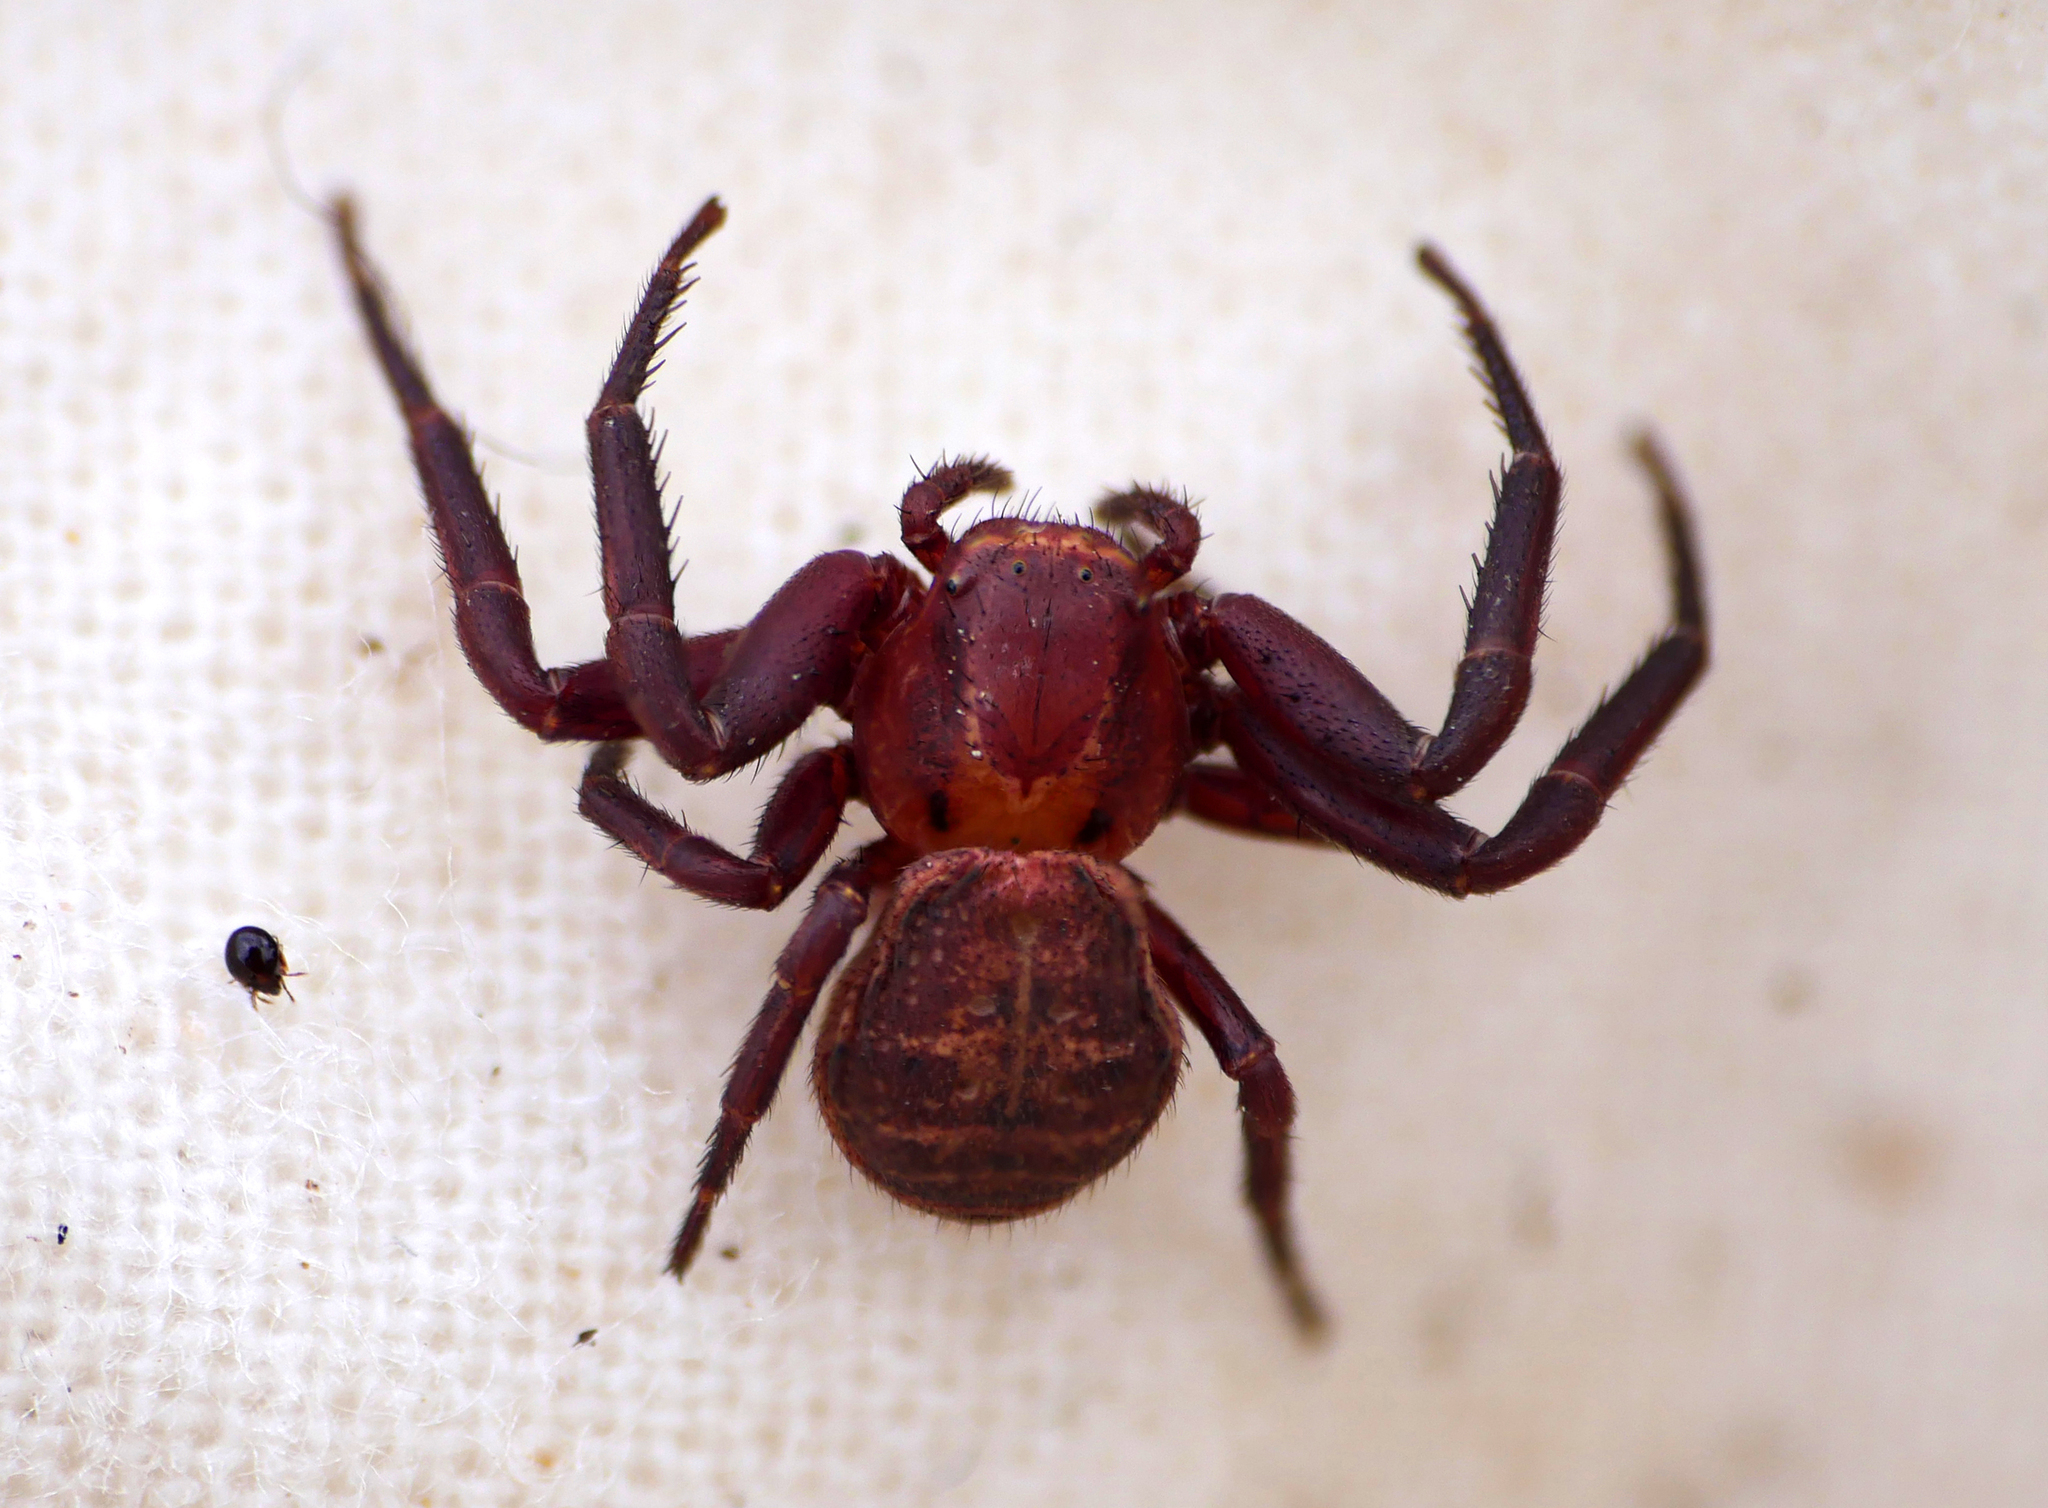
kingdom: Animalia
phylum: Arthropoda
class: Arachnida
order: Araneae
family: Thomisidae
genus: Xysticus
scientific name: Xysticus bifasciatus
